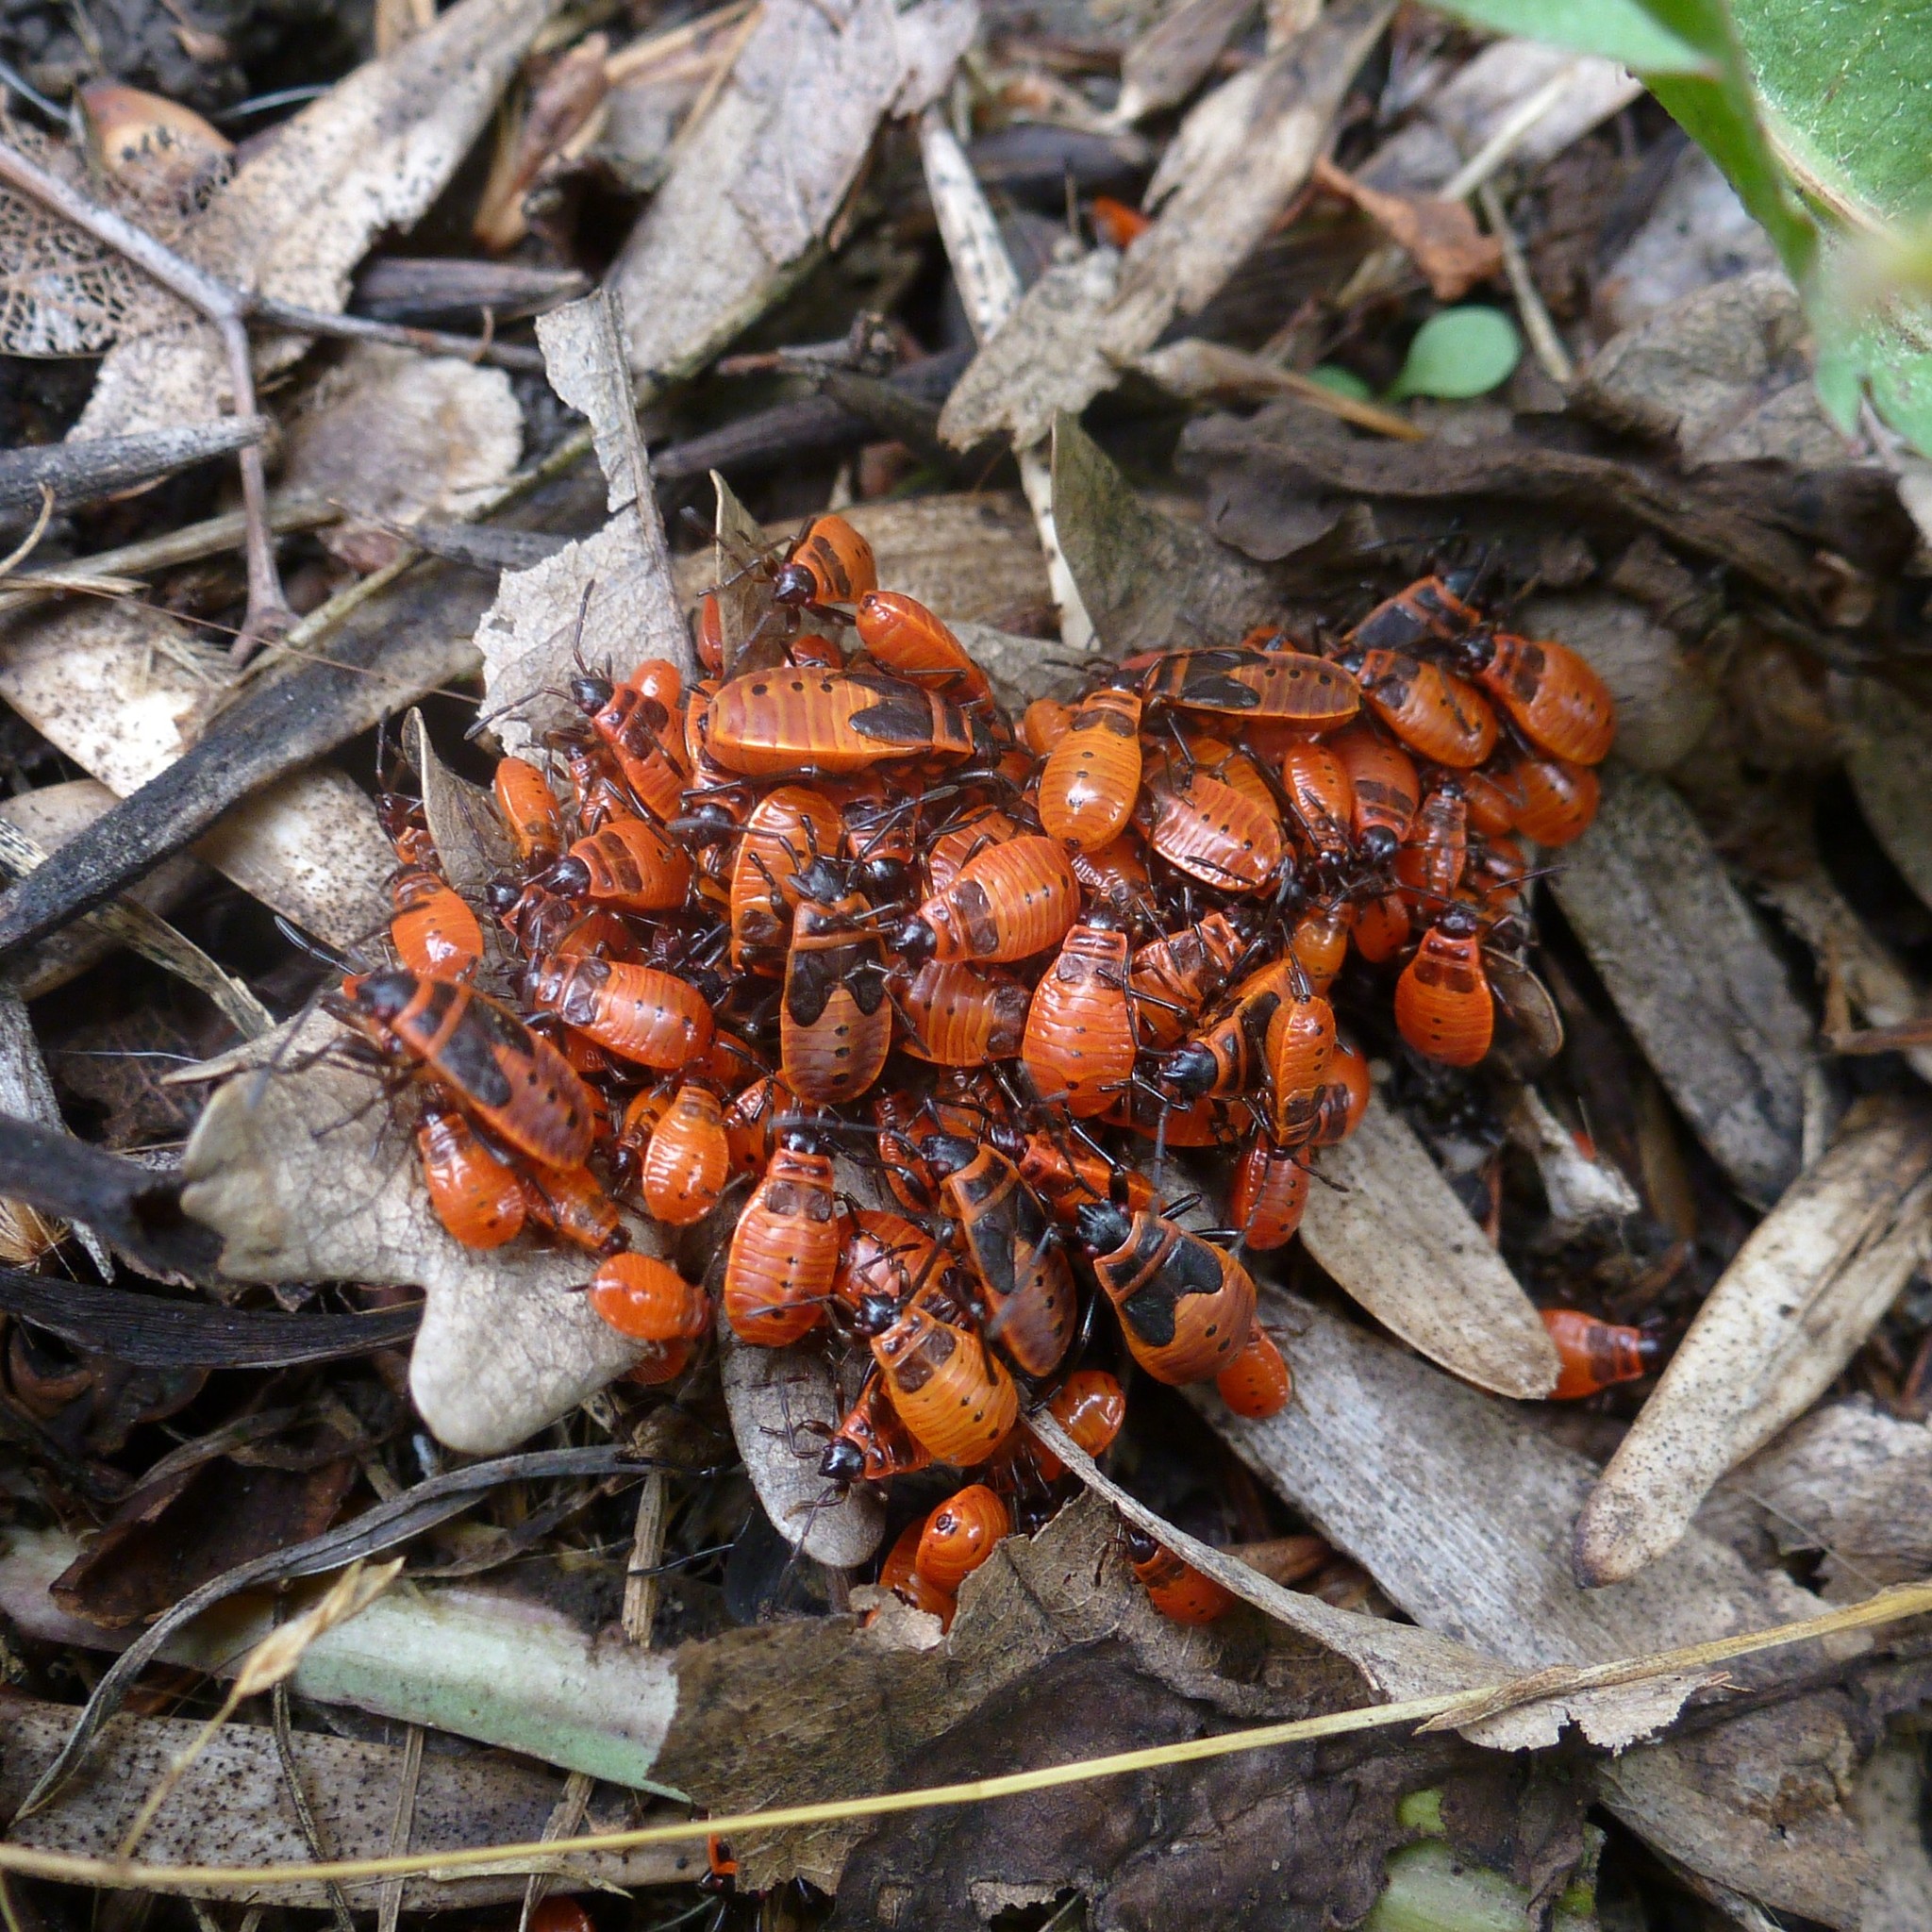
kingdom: Animalia
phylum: Arthropoda
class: Insecta
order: Hemiptera
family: Pyrrhocoridae
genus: Pyrrhocoris
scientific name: Pyrrhocoris apterus
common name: Firebug
